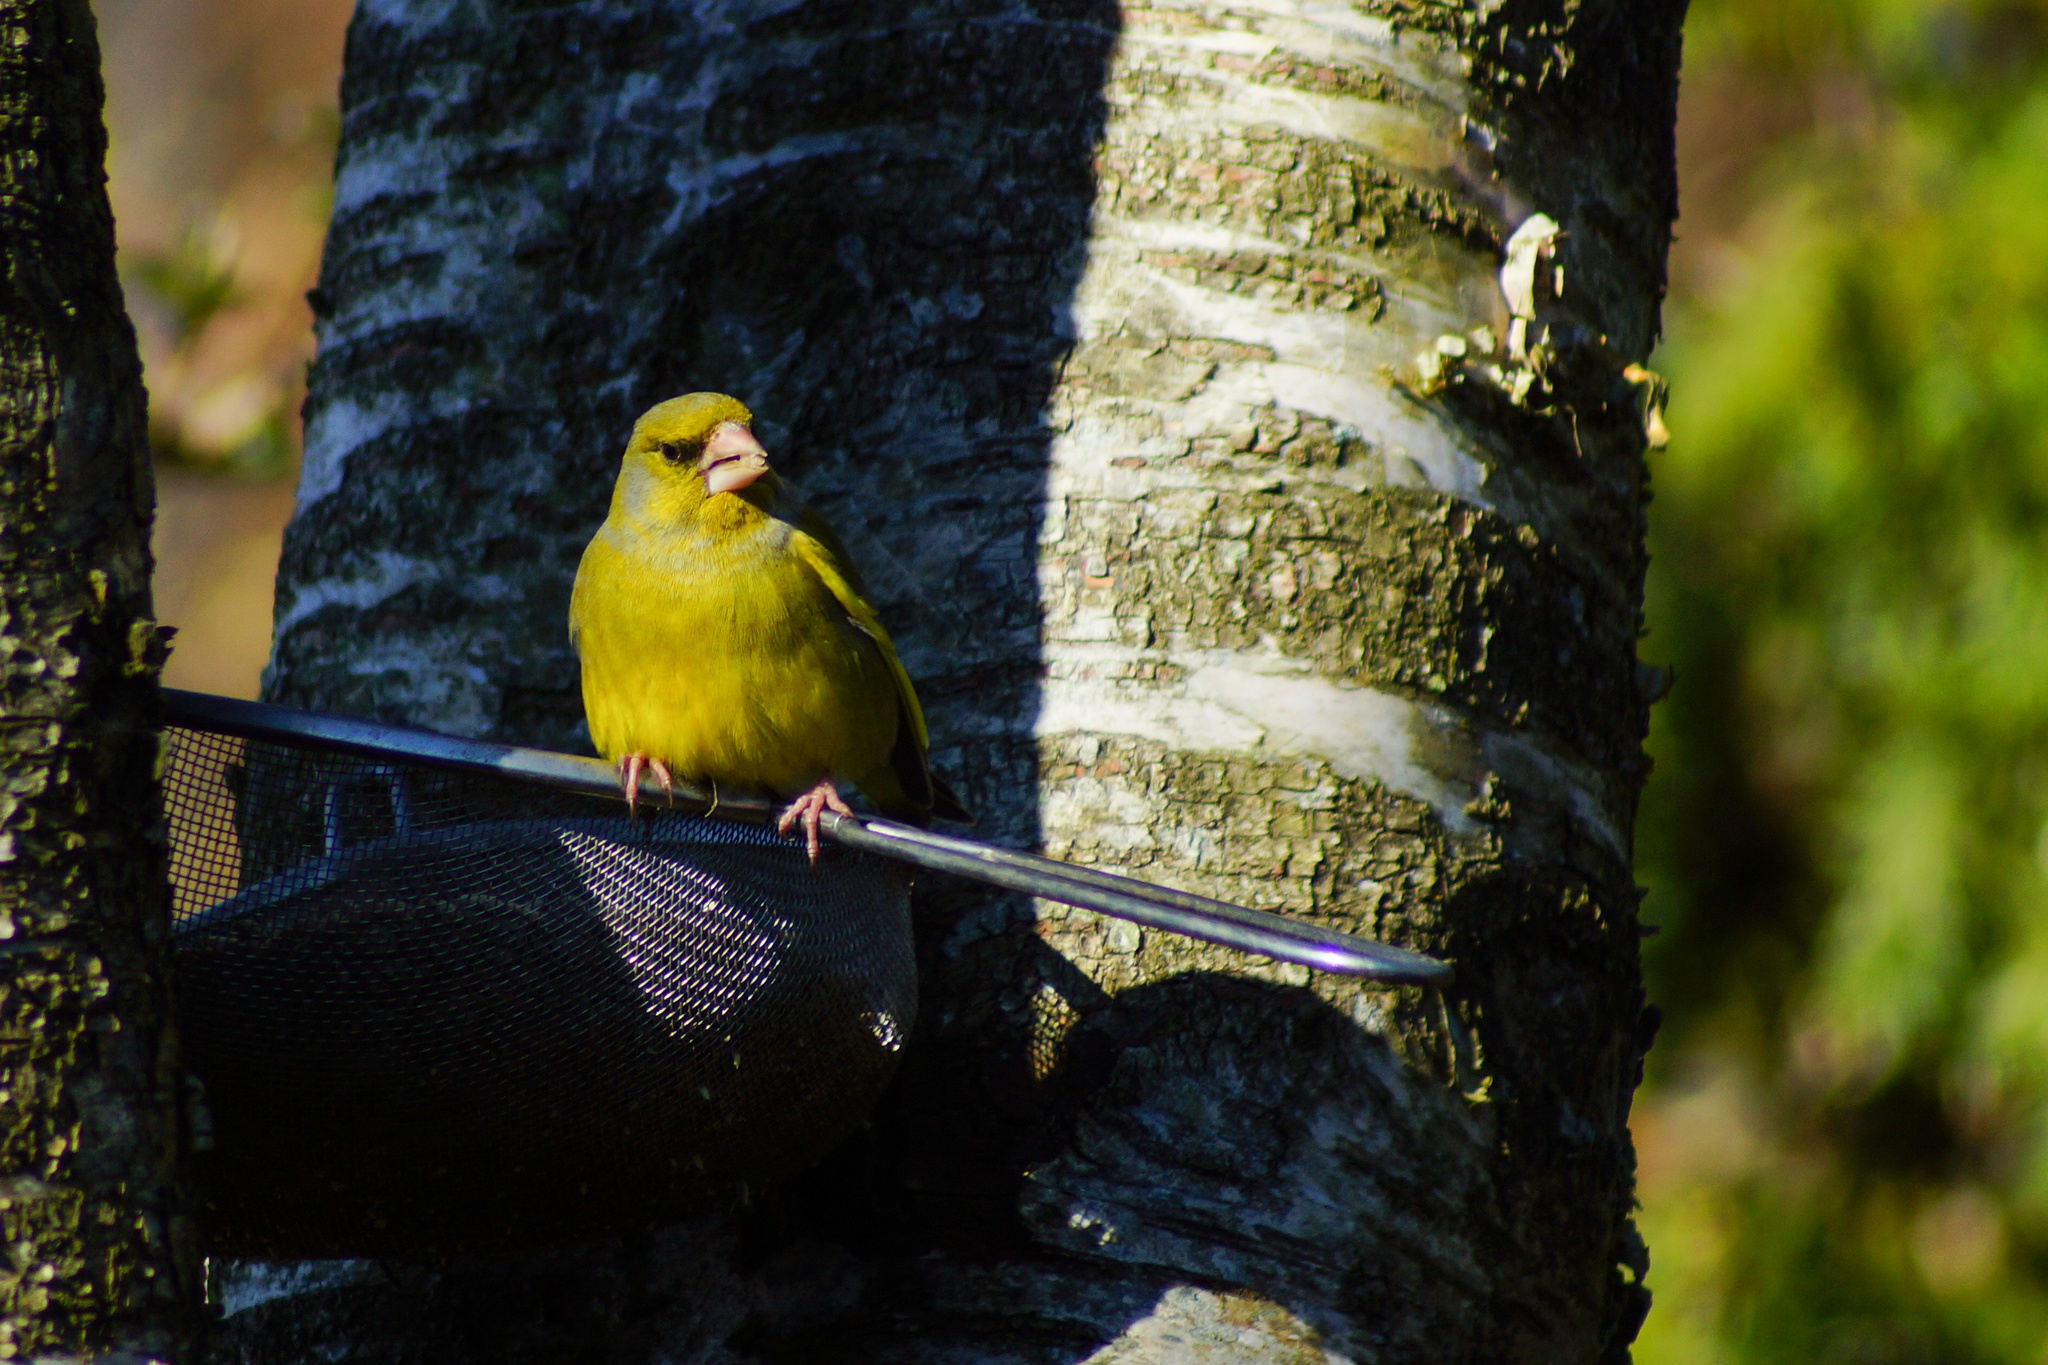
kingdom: Plantae
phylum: Tracheophyta
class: Liliopsida
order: Poales
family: Poaceae
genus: Chloris
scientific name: Chloris chloris
